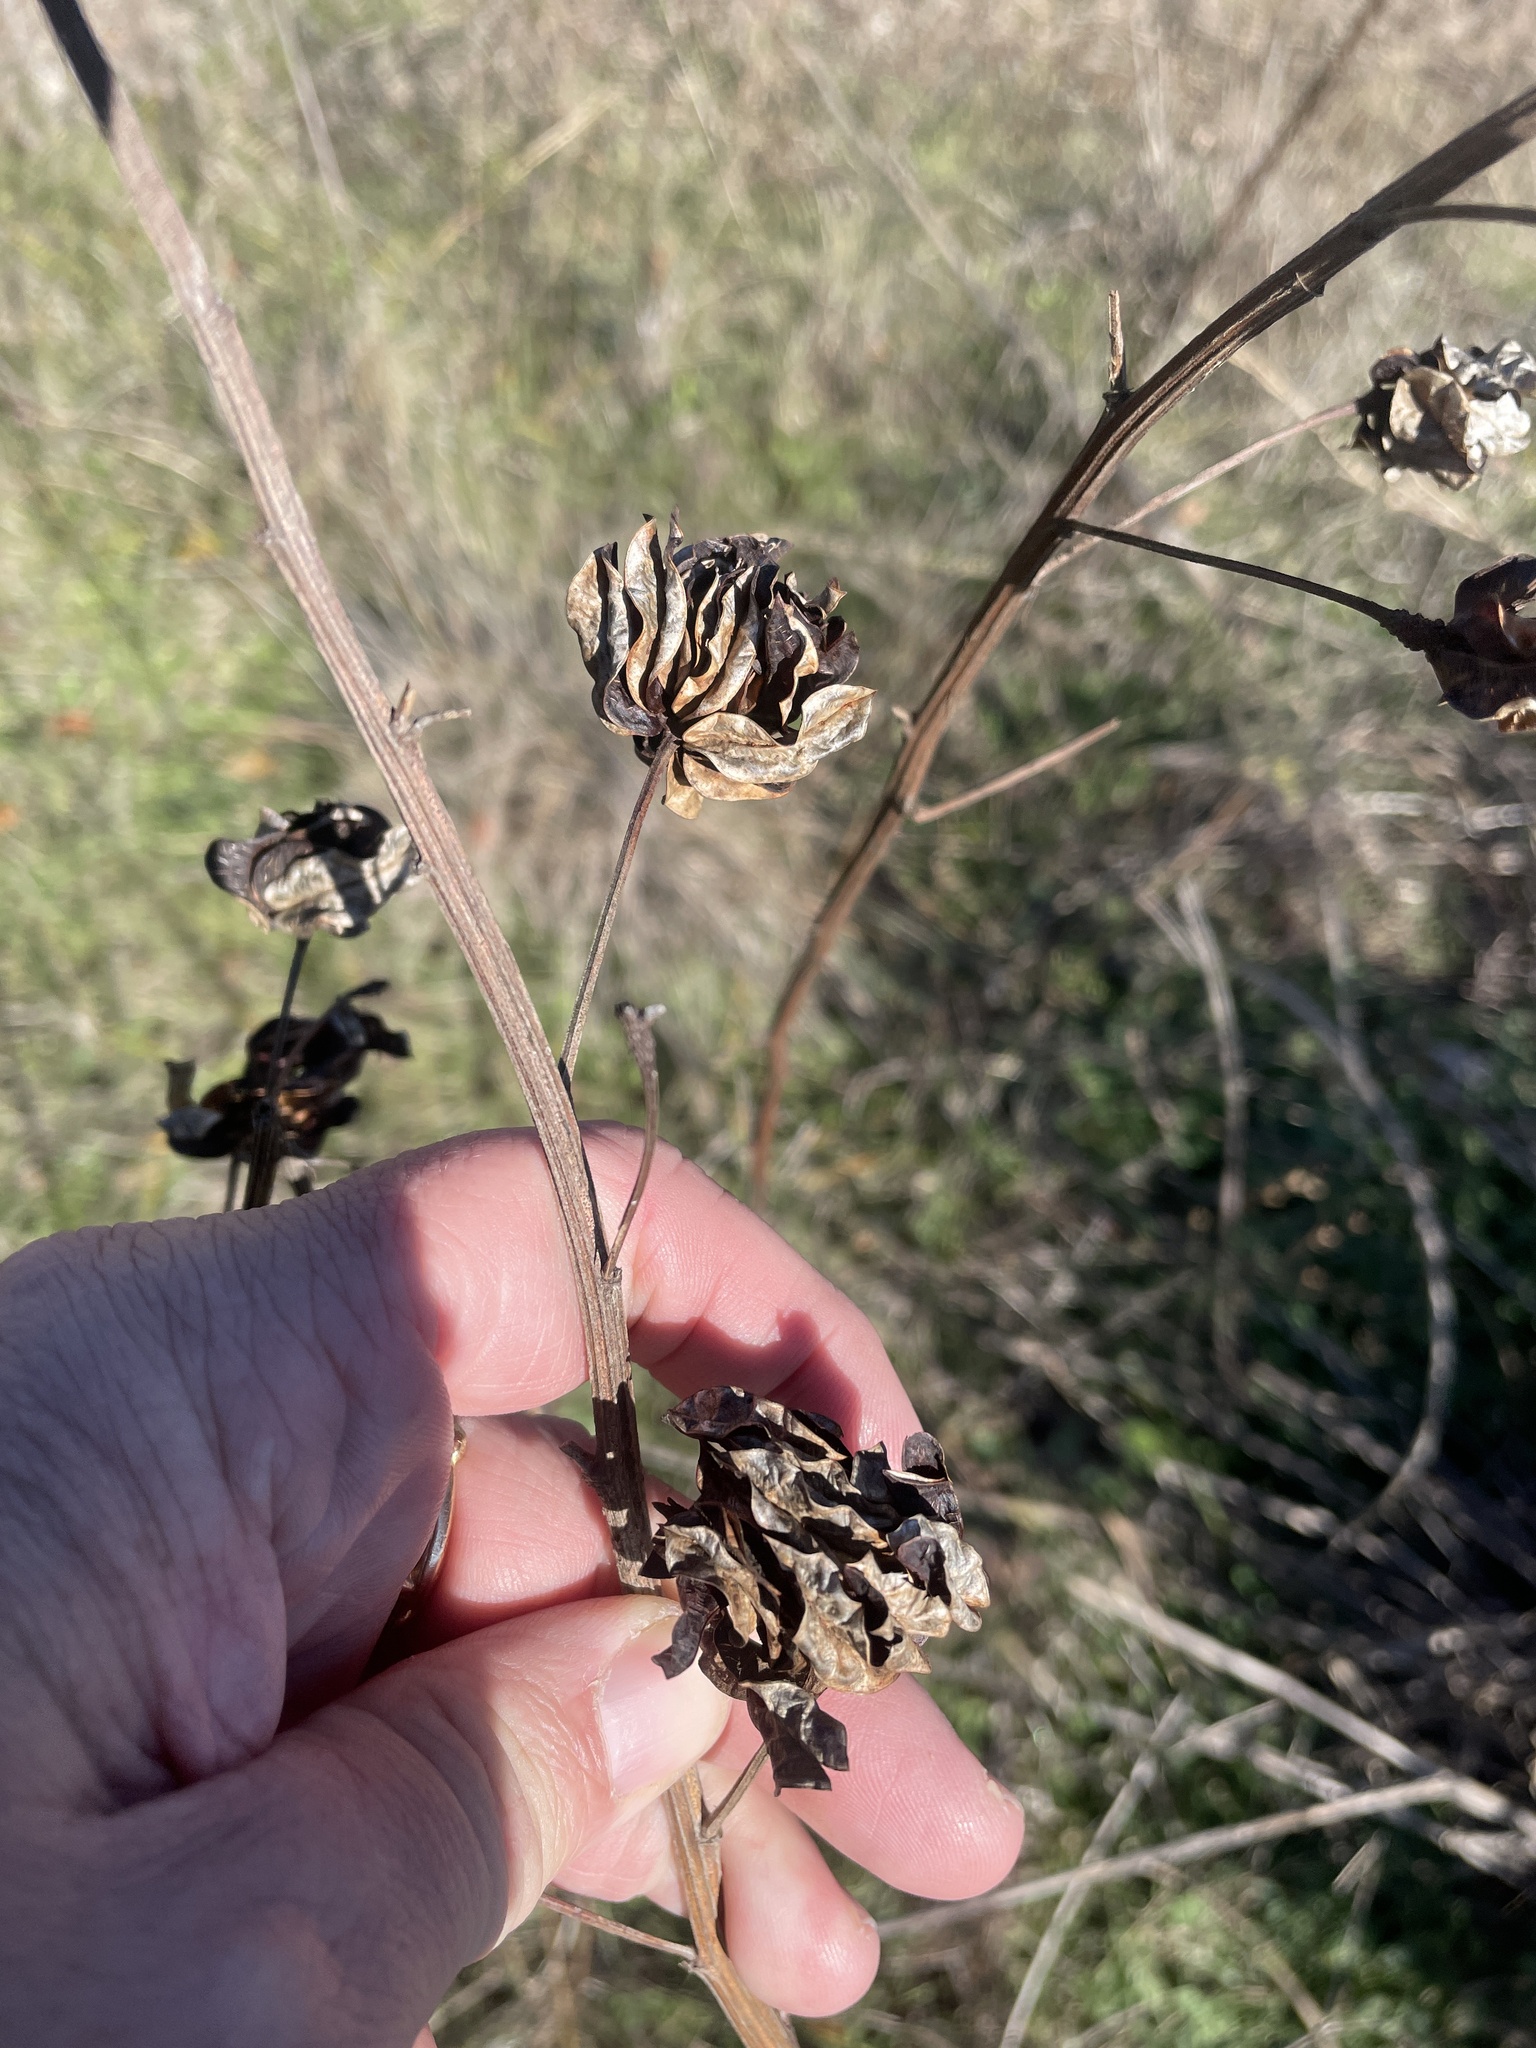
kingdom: Plantae
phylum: Tracheophyta
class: Magnoliopsida
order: Fabales
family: Fabaceae
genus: Desmanthus
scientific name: Desmanthus illinoensis
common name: Illinois bundle-flower
